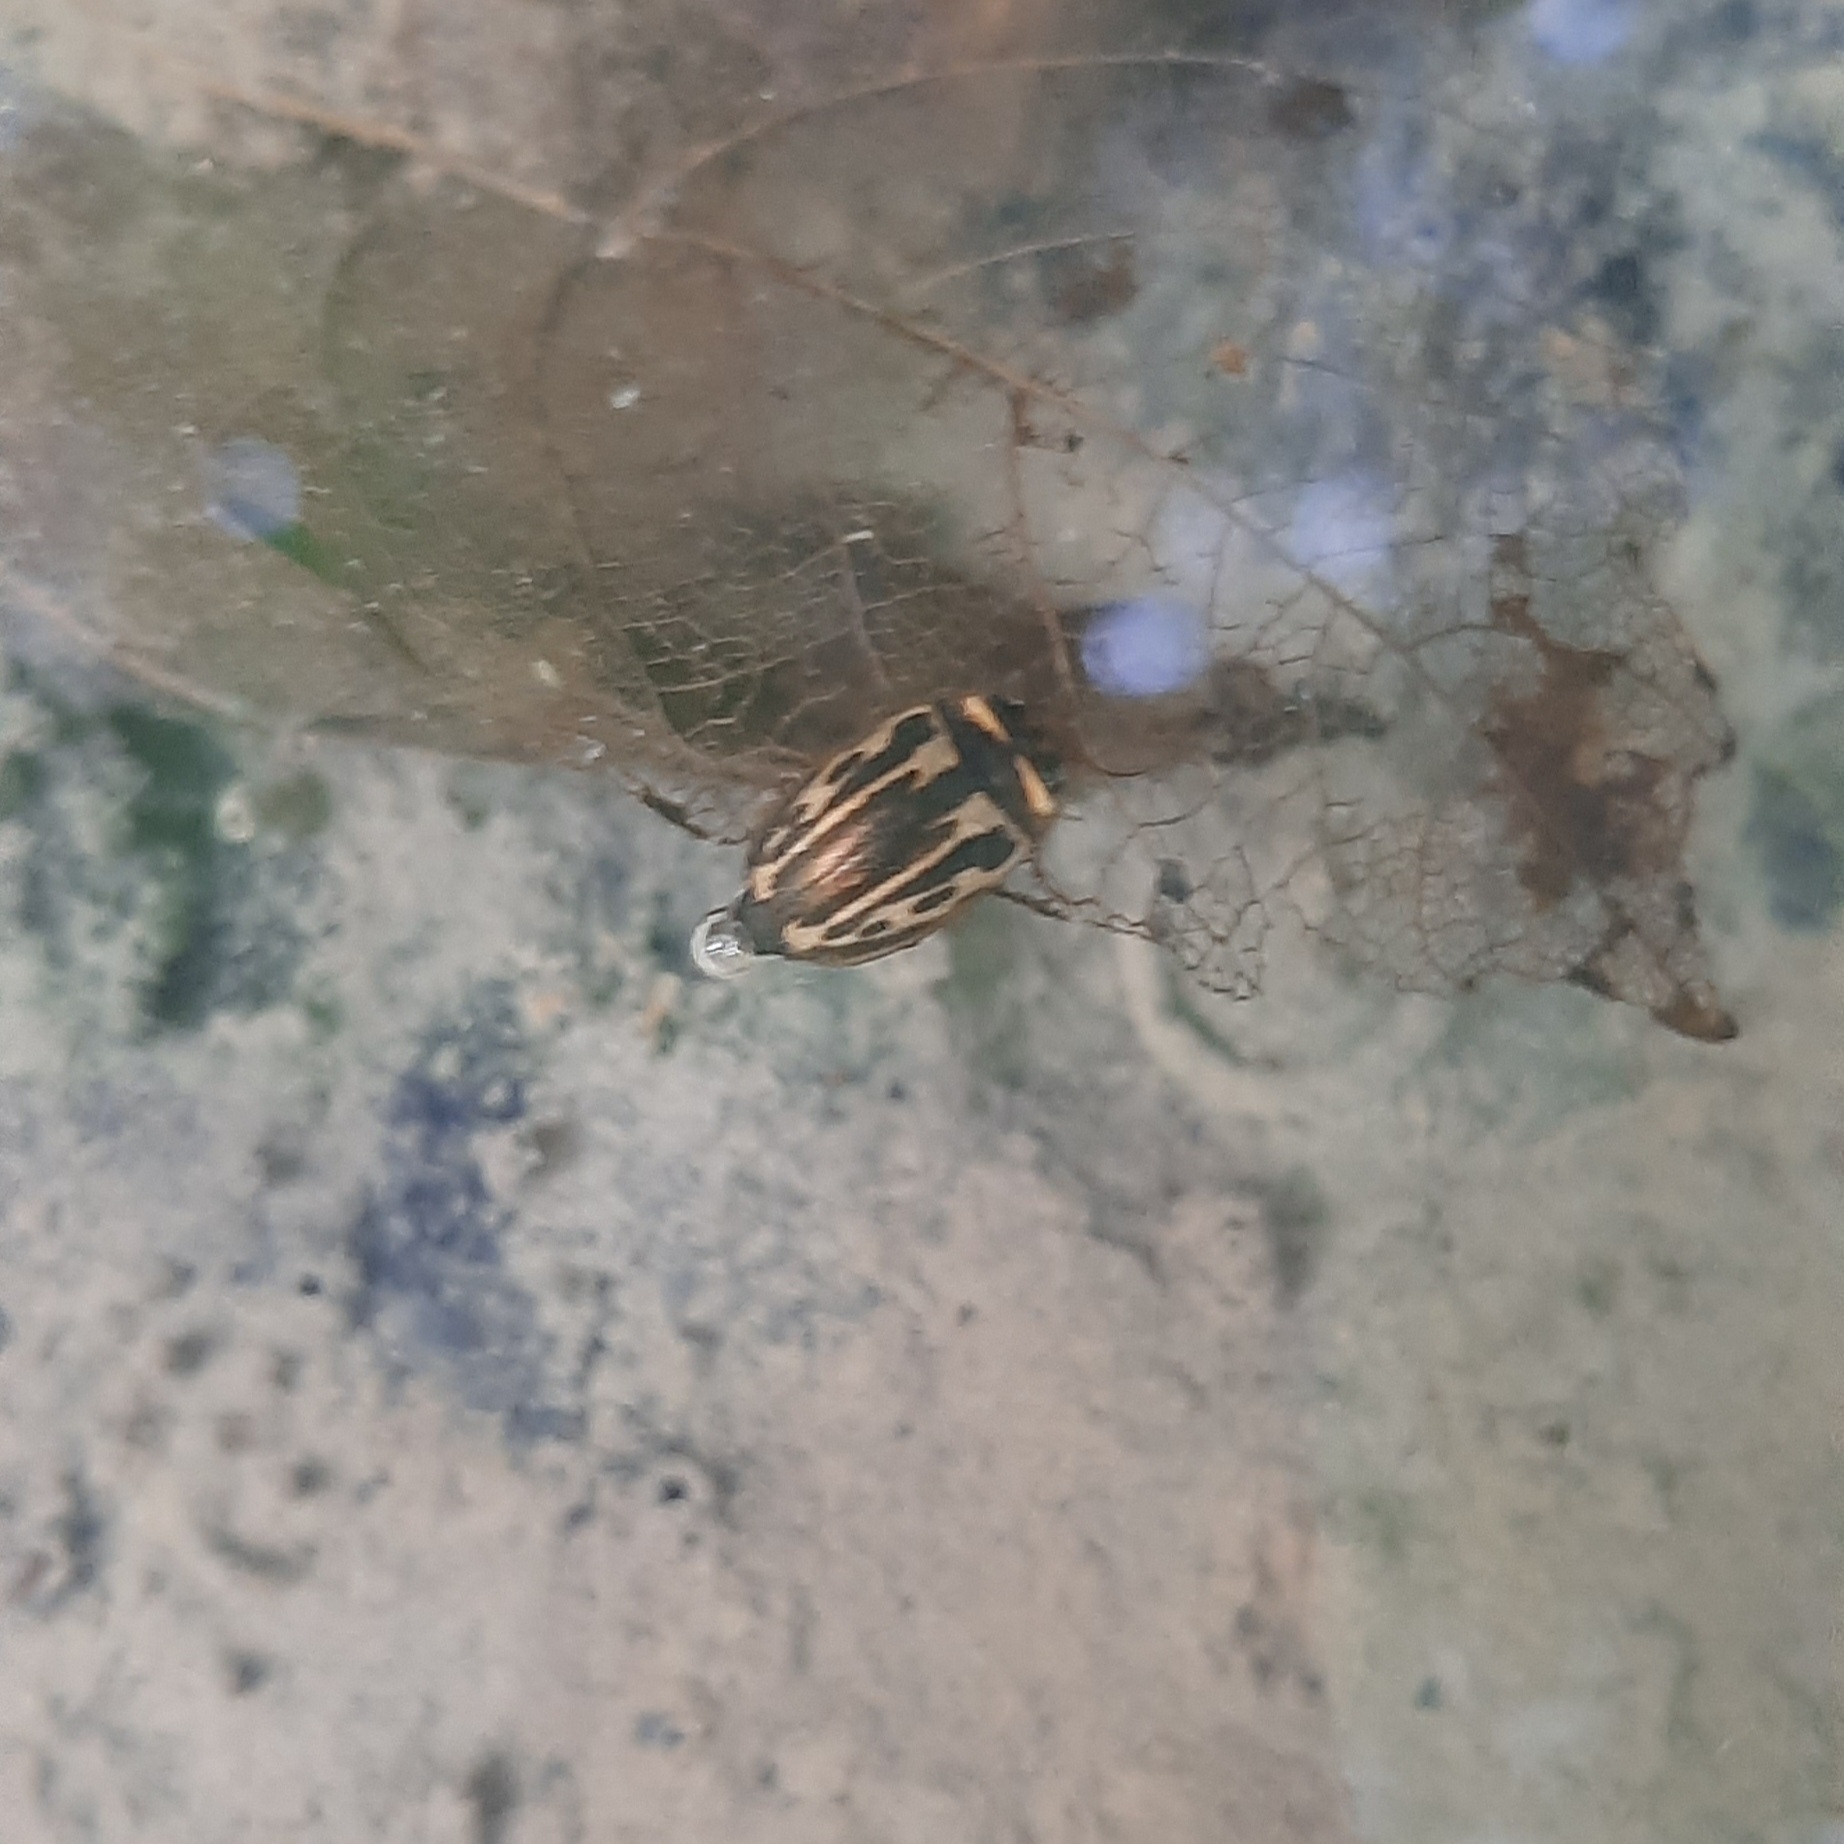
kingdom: Animalia
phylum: Arthropoda
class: Insecta
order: Coleoptera
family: Dytiscidae
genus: Platambus
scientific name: Platambus maculatus
